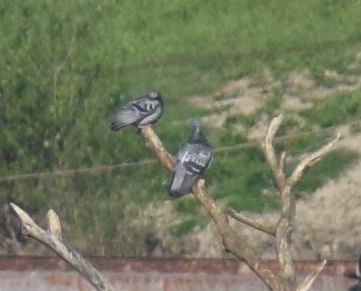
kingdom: Animalia
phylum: Chordata
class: Aves
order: Columbiformes
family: Columbidae
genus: Columba
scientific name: Columba livia
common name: Rock pigeon
